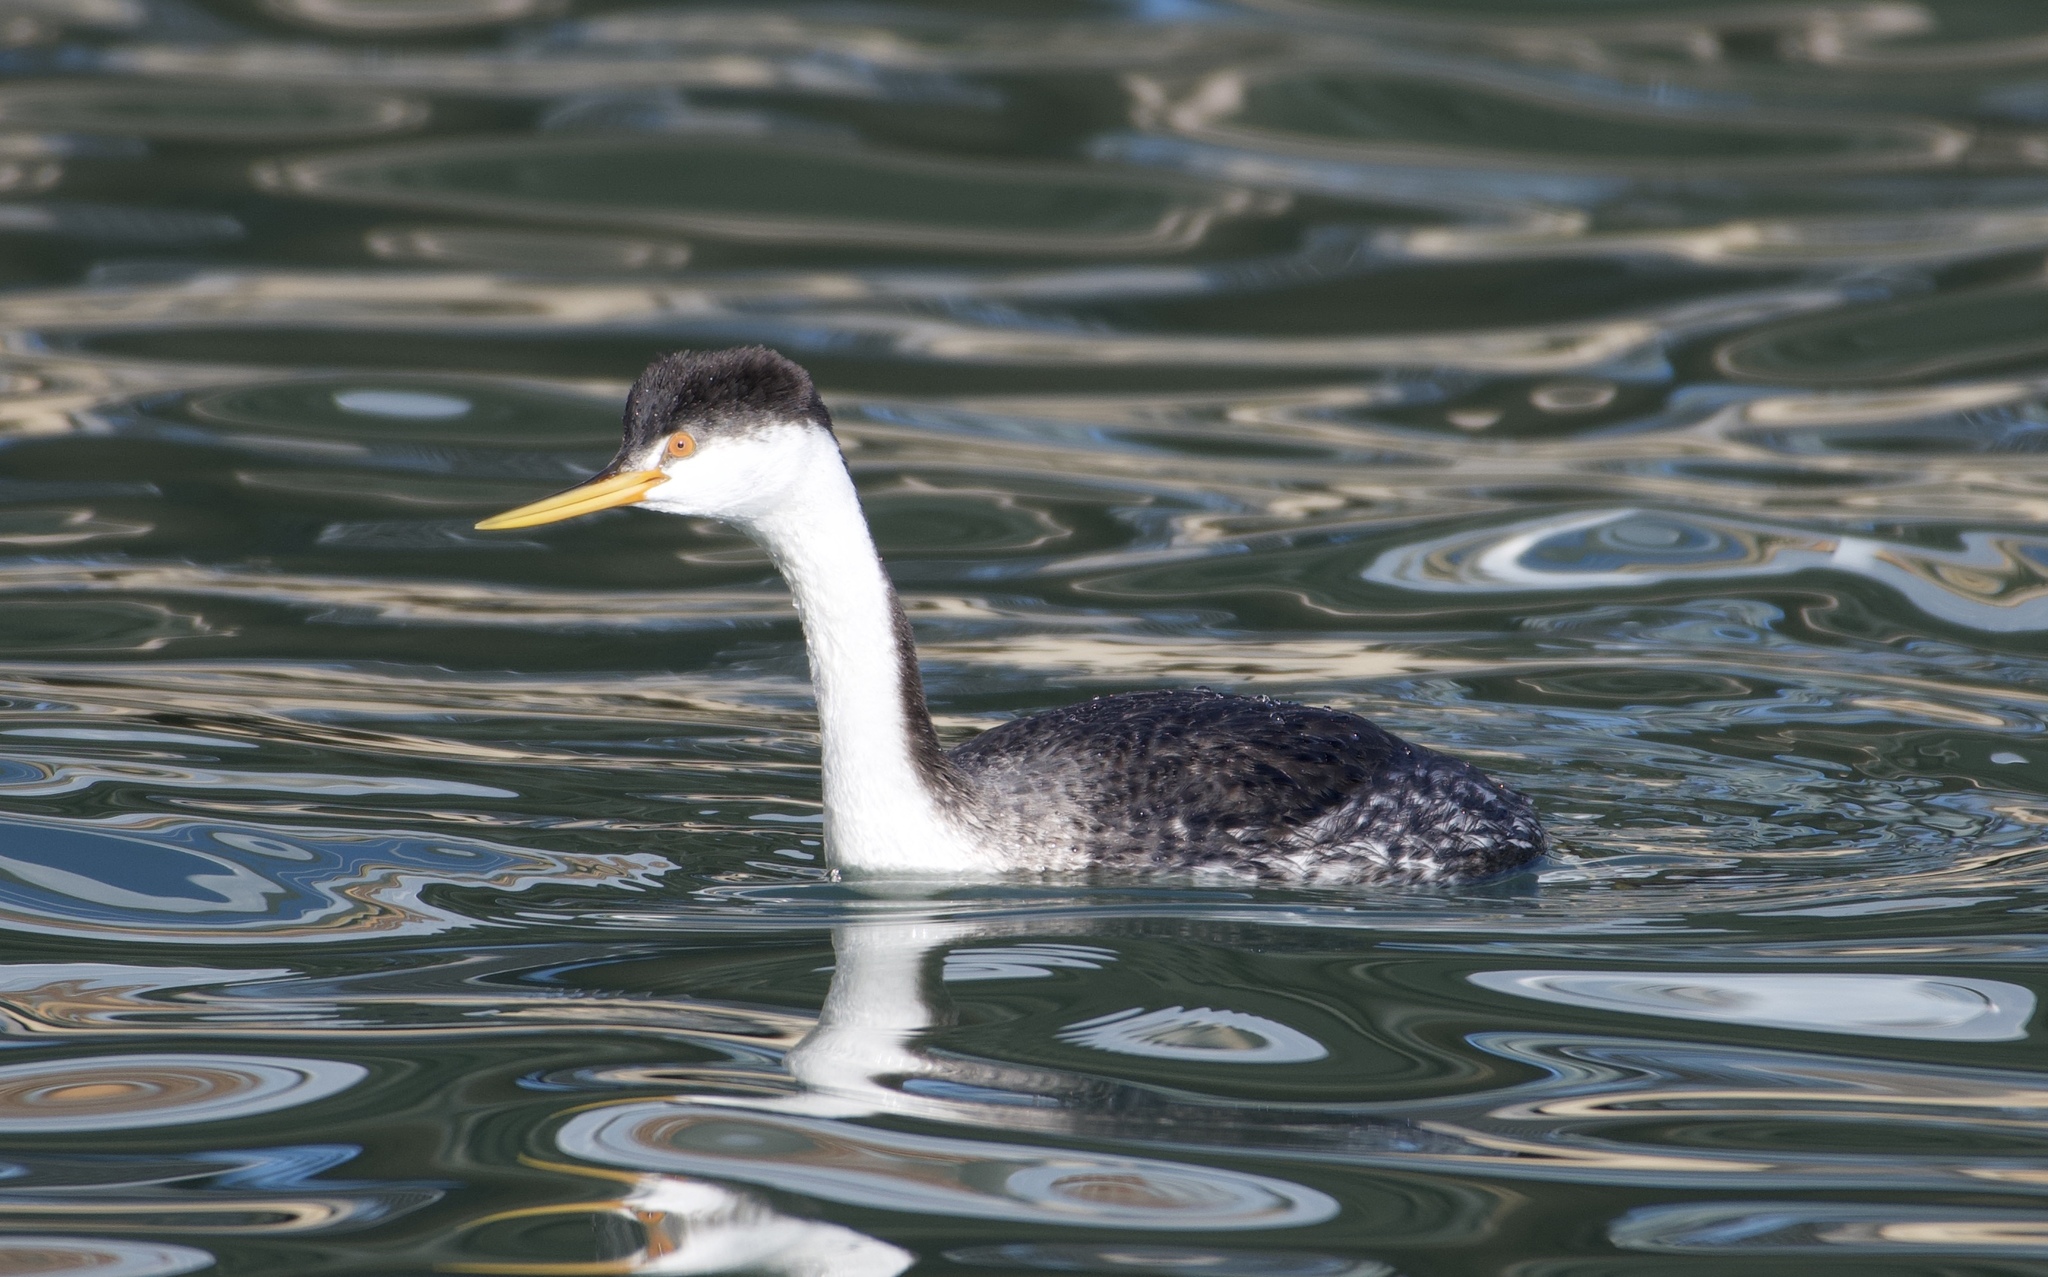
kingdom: Animalia
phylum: Chordata
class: Aves
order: Podicipediformes
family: Podicipedidae
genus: Aechmophorus
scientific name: Aechmophorus clarkii
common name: Clark's grebe
